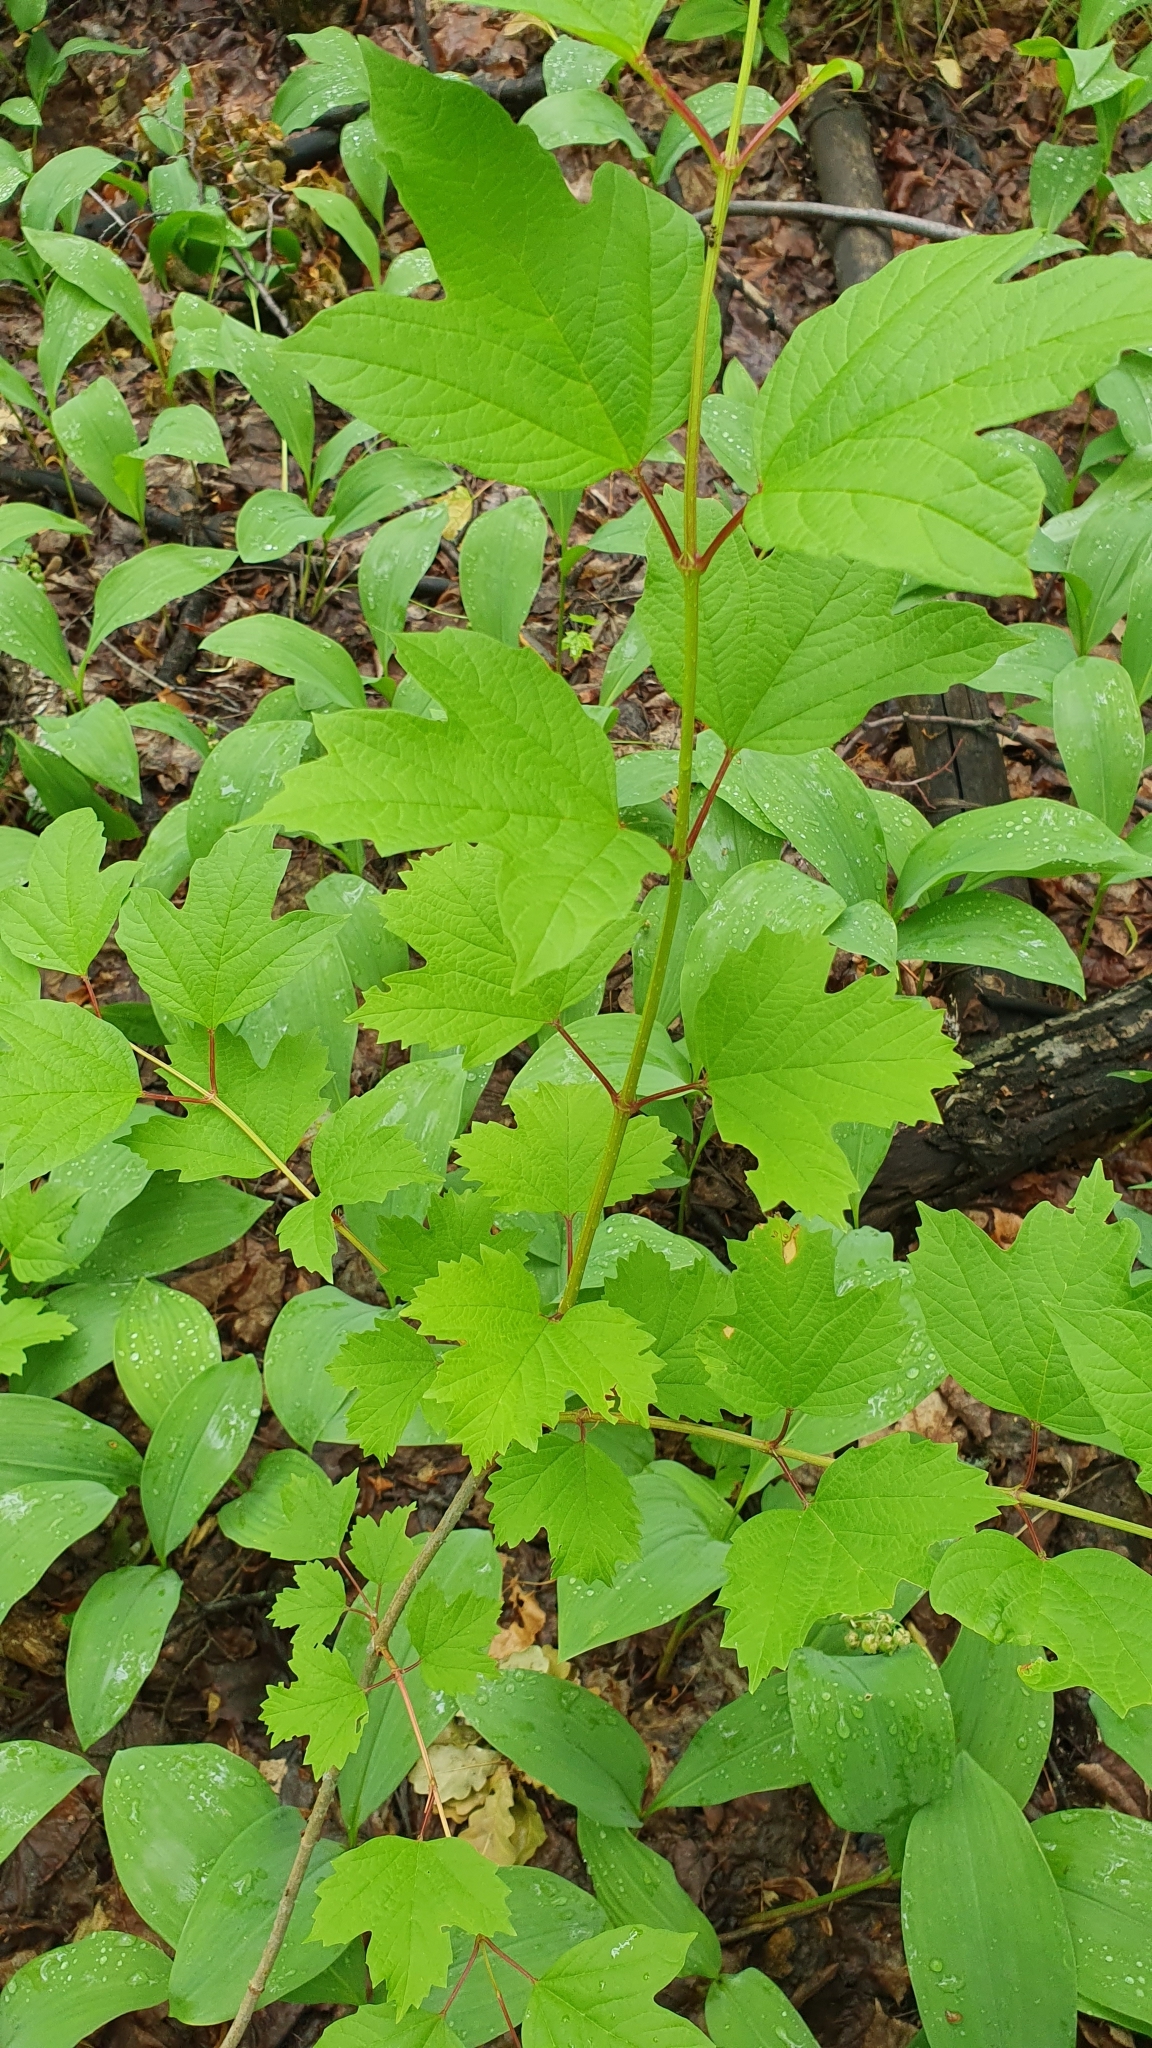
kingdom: Plantae
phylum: Tracheophyta
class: Magnoliopsida
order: Dipsacales
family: Viburnaceae
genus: Viburnum
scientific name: Viburnum opulus
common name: Guelder-rose
